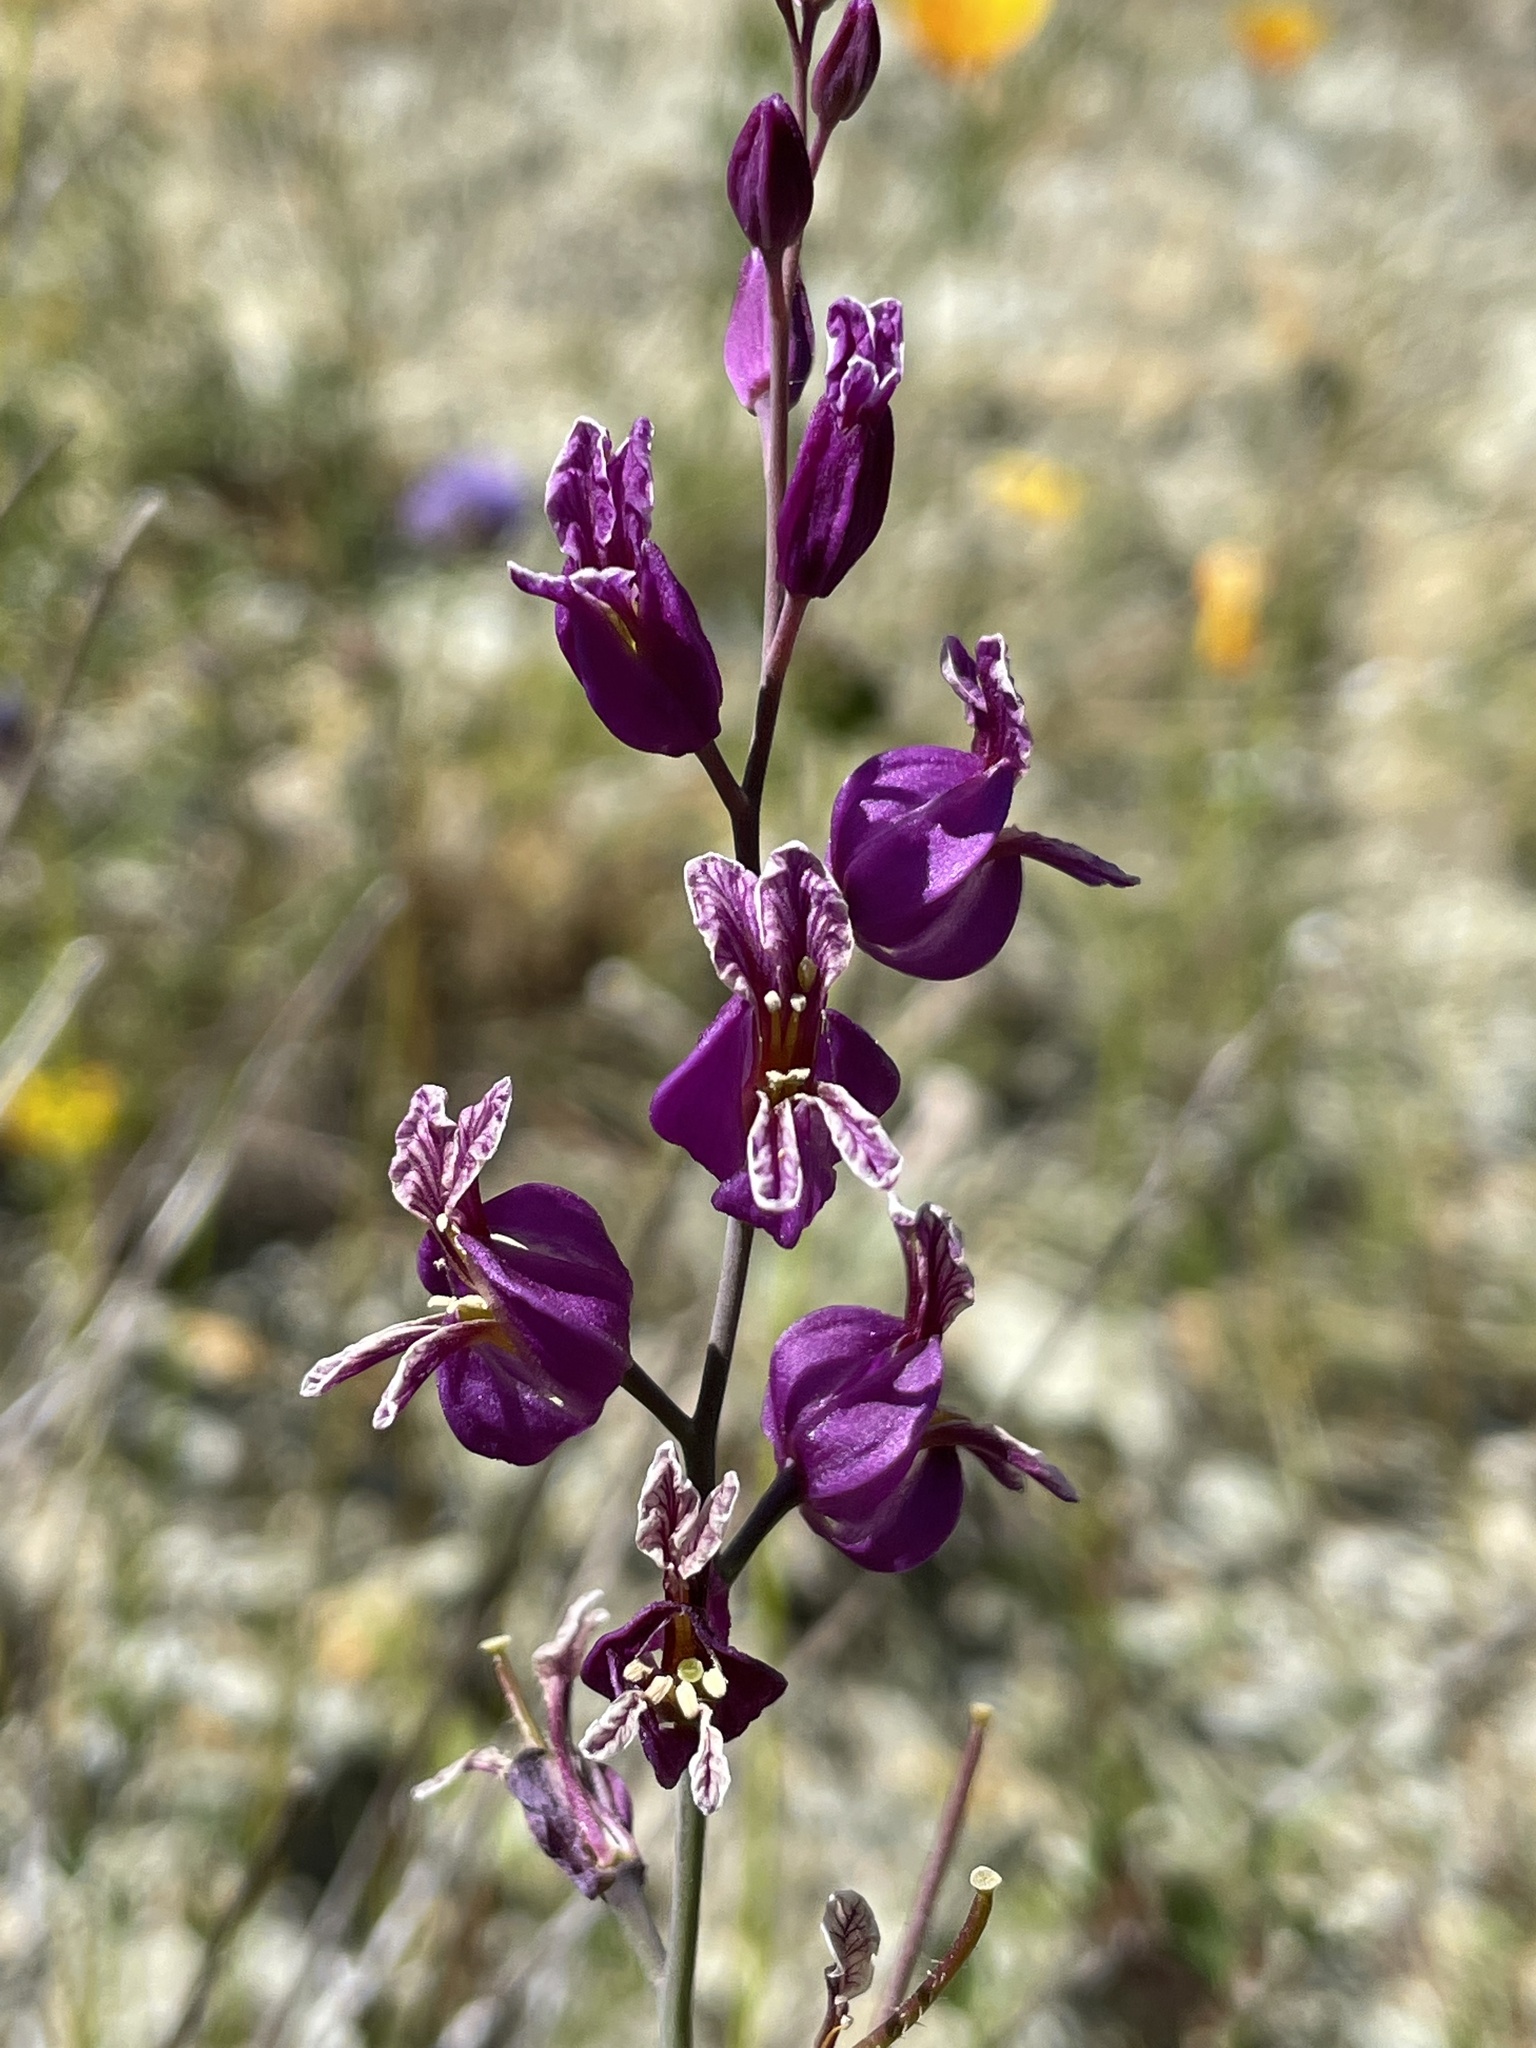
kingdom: Plantae
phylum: Tracheophyta
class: Magnoliopsida
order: Brassicales
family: Brassicaceae
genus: Streptanthus
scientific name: Streptanthus glandulosus
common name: Jewel-flower
